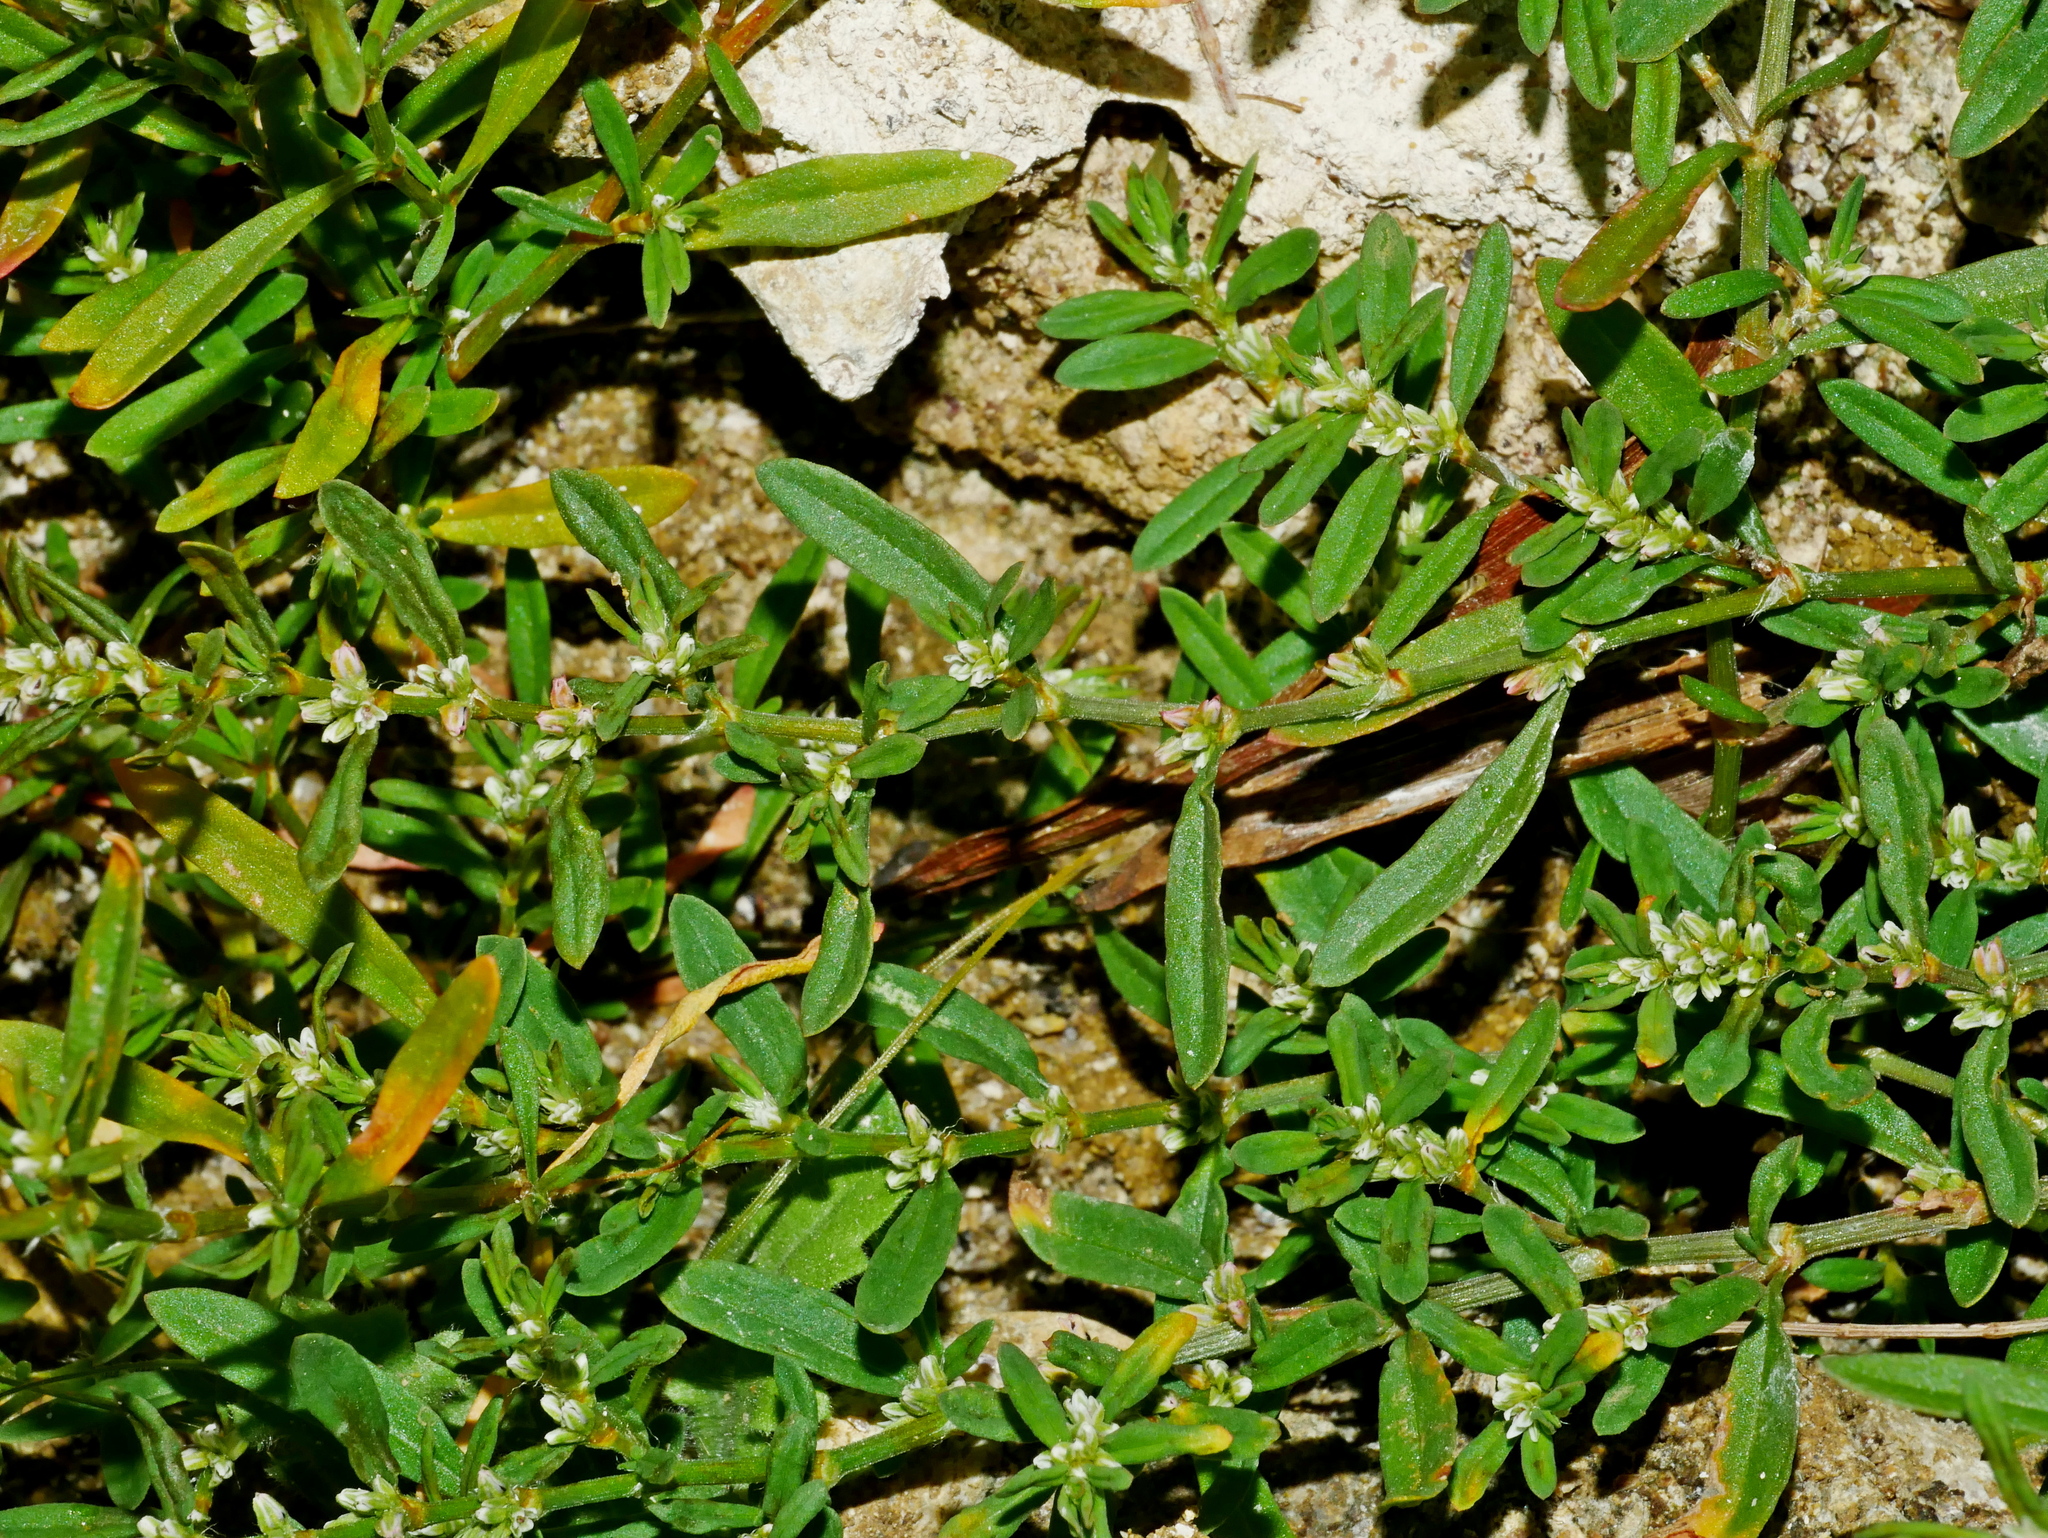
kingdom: Plantae
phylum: Tracheophyta
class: Magnoliopsida
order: Caryophyllales
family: Polygonaceae
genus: Polygonum
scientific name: Polygonum plebeium
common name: Common knotweed
